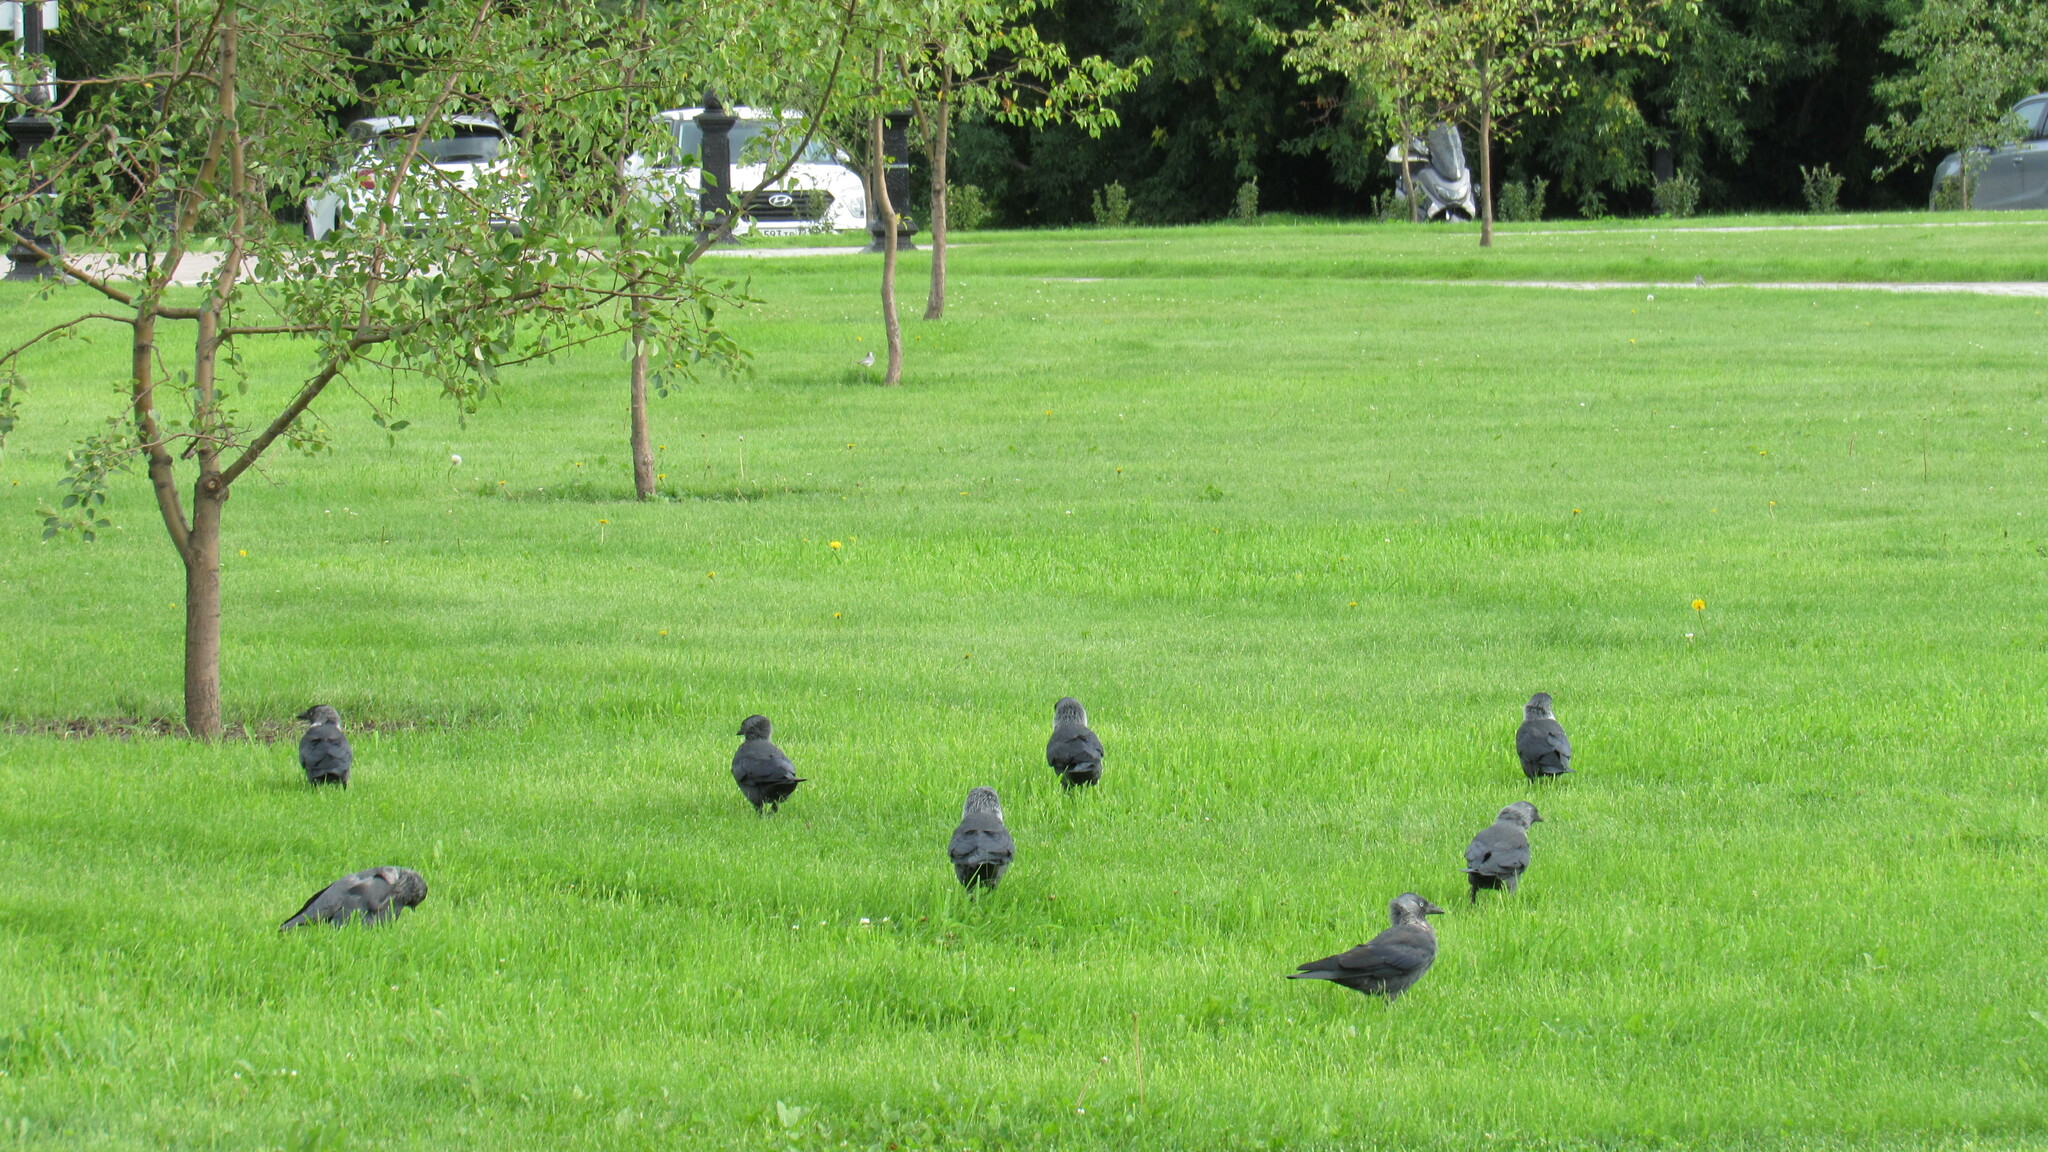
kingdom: Animalia
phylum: Chordata
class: Aves
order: Passeriformes
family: Corvidae
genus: Coloeus
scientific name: Coloeus monedula
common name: Western jackdaw
